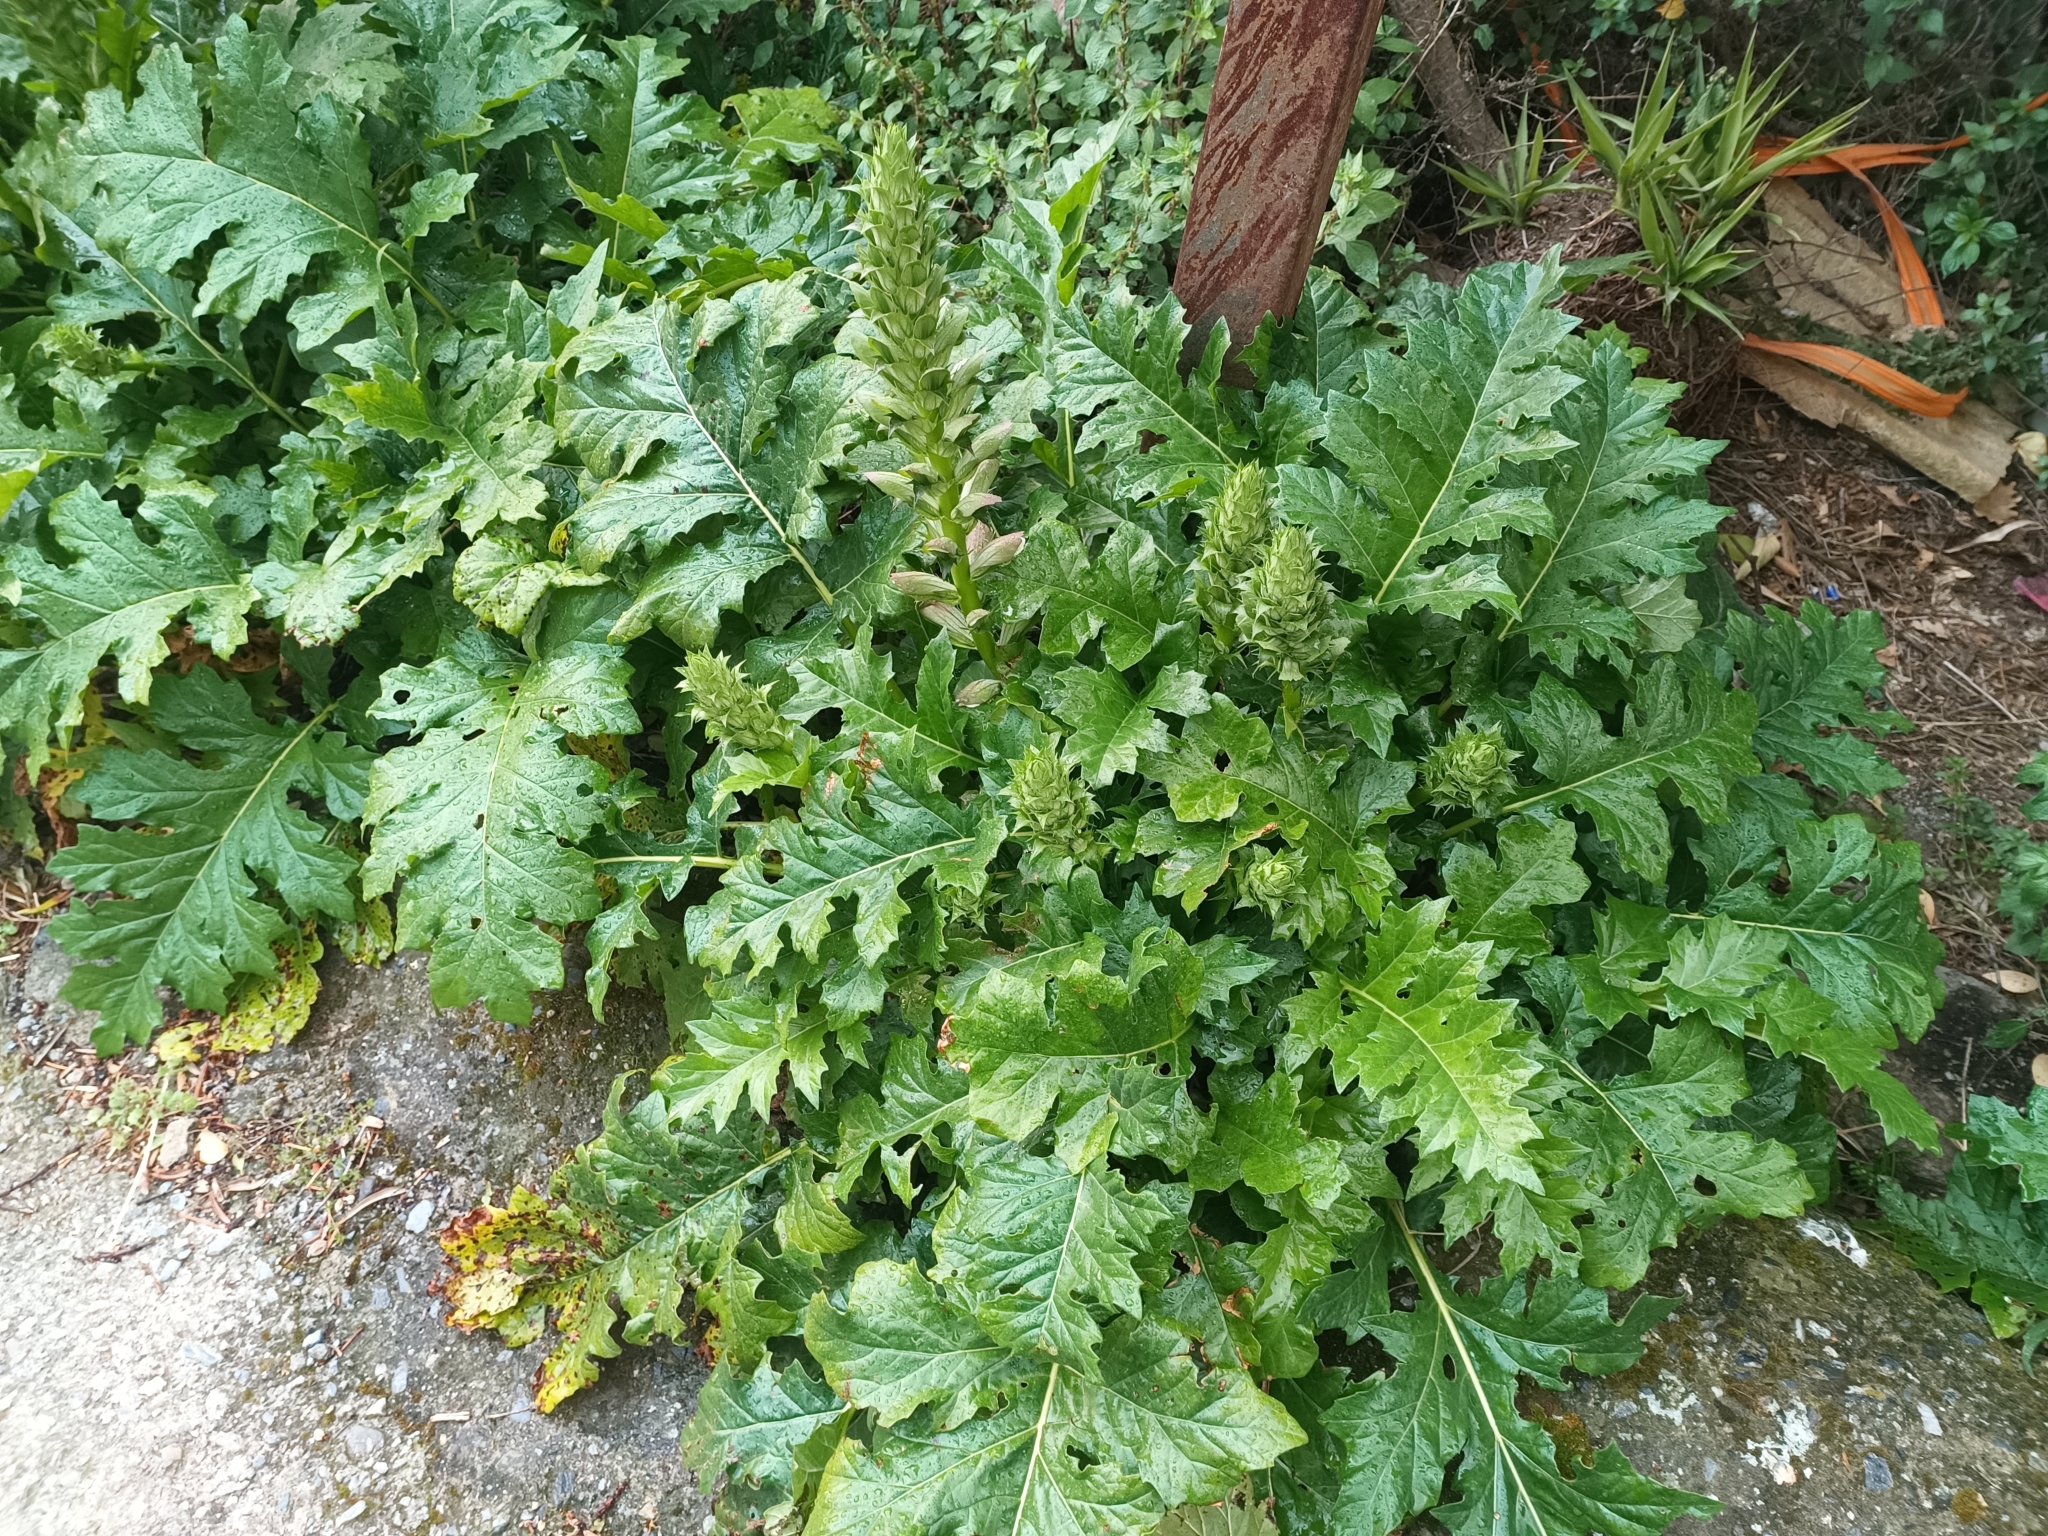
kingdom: Plantae
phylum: Tracheophyta
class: Magnoliopsida
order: Lamiales
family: Acanthaceae
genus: Acanthus
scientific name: Acanthus mollis
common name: Bear's-breech
